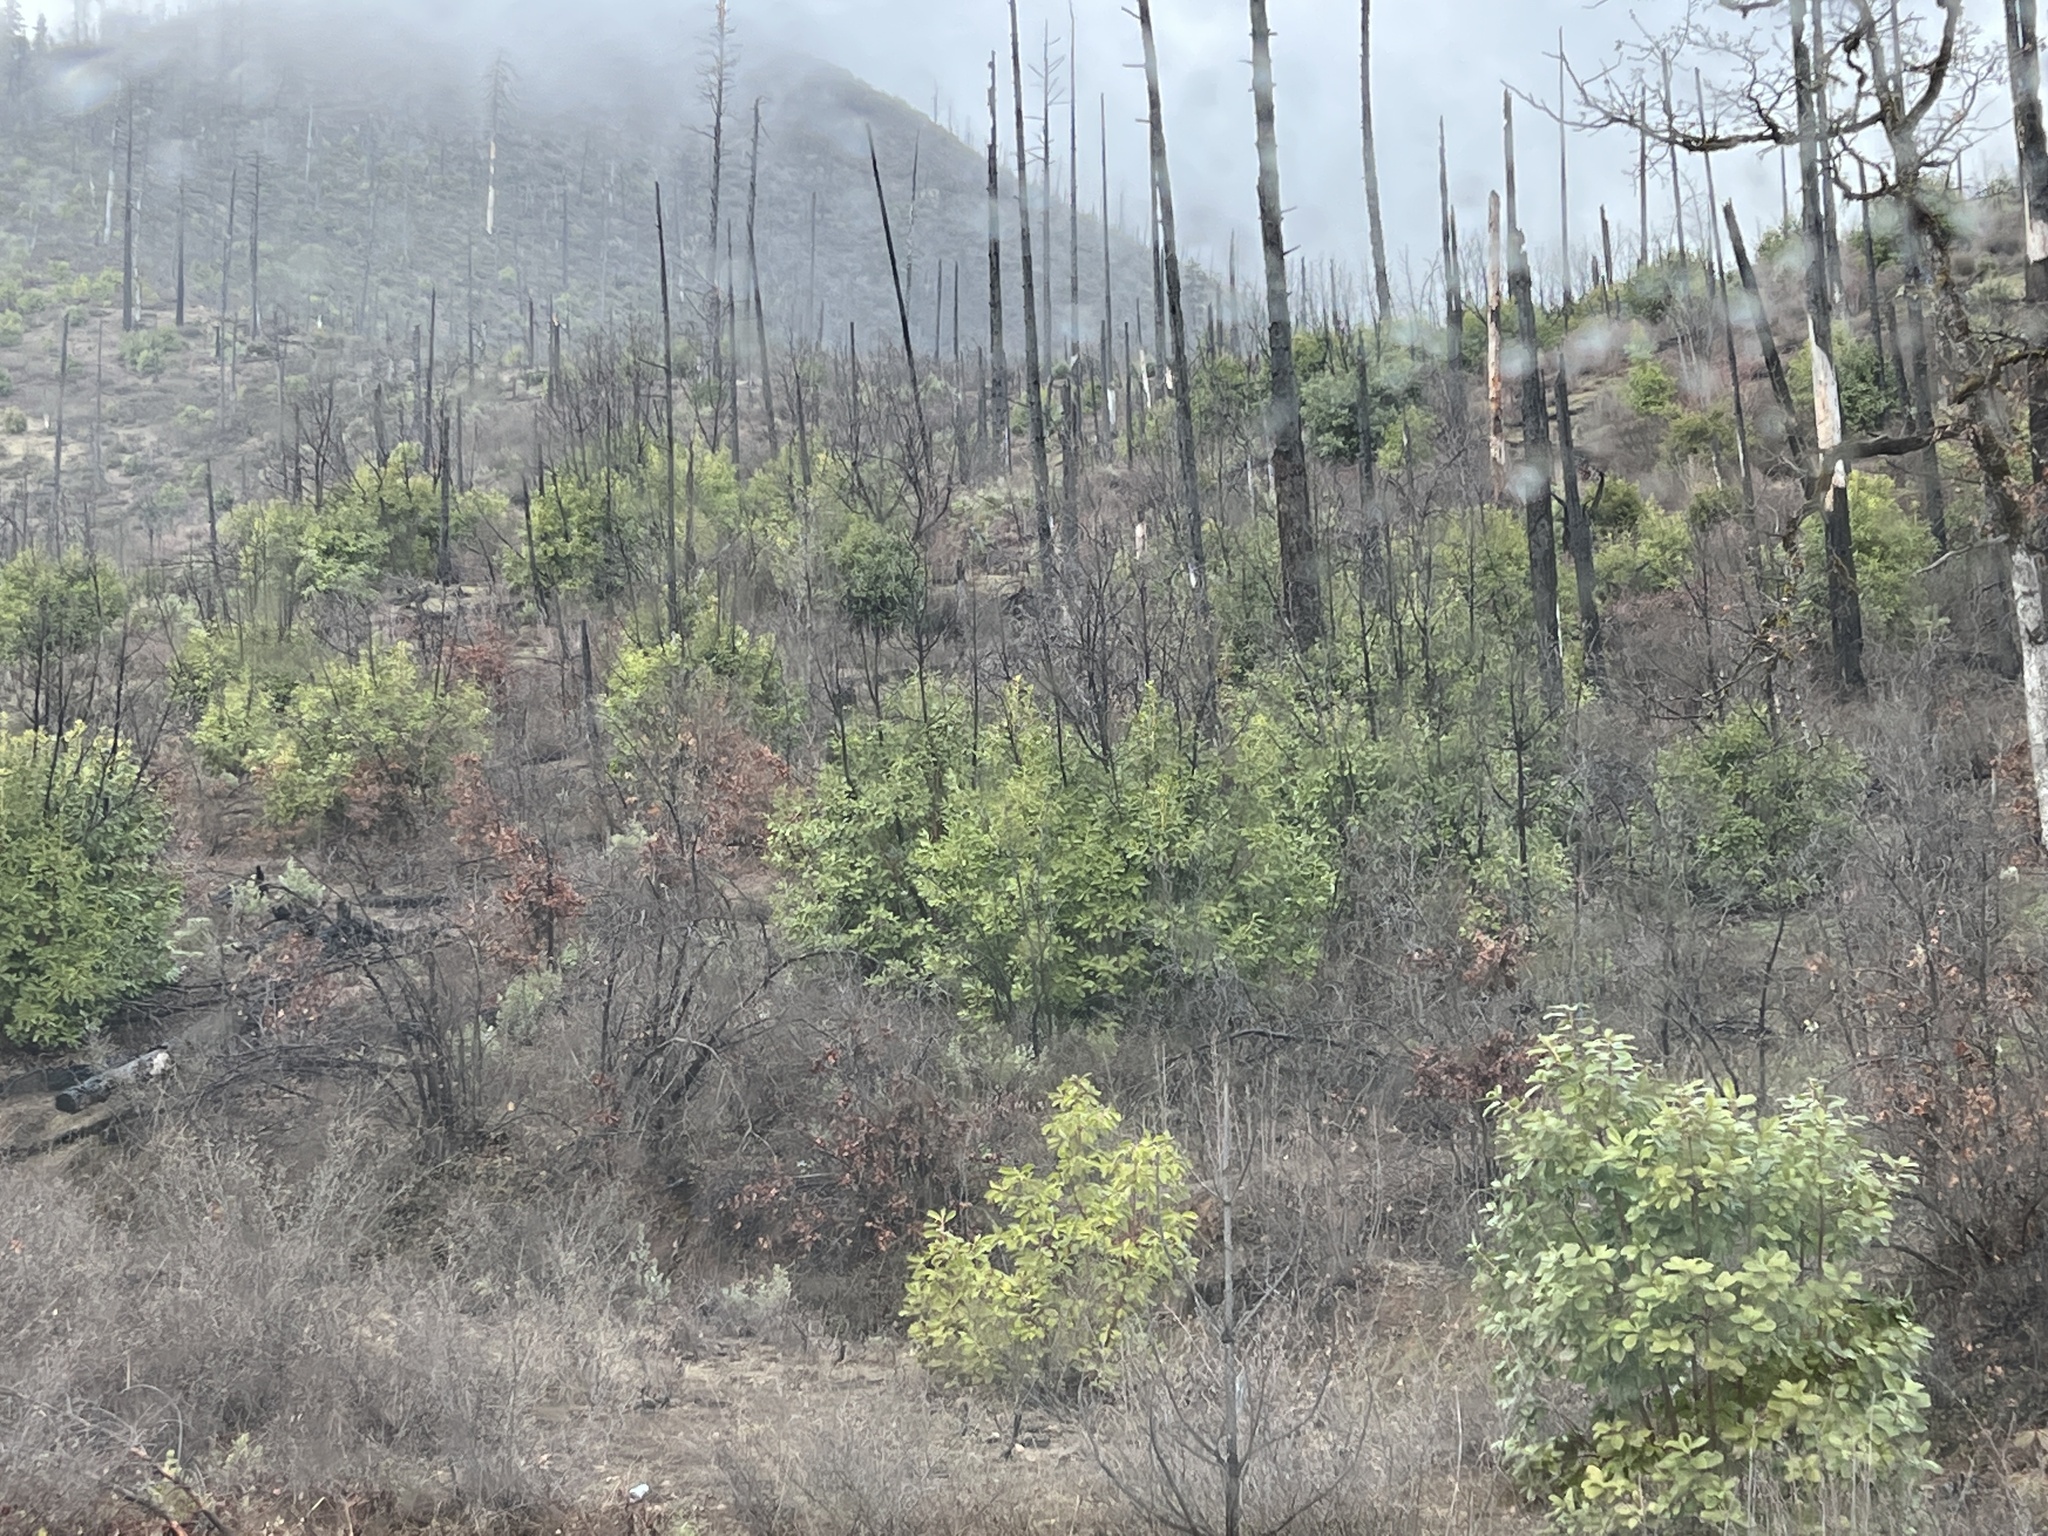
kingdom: Plantae
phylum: Tracheophyta
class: Magnoliopsida
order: Ericales
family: Ericaceae
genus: Arbutus
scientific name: Arbutus menziesii
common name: Pacific madrone
